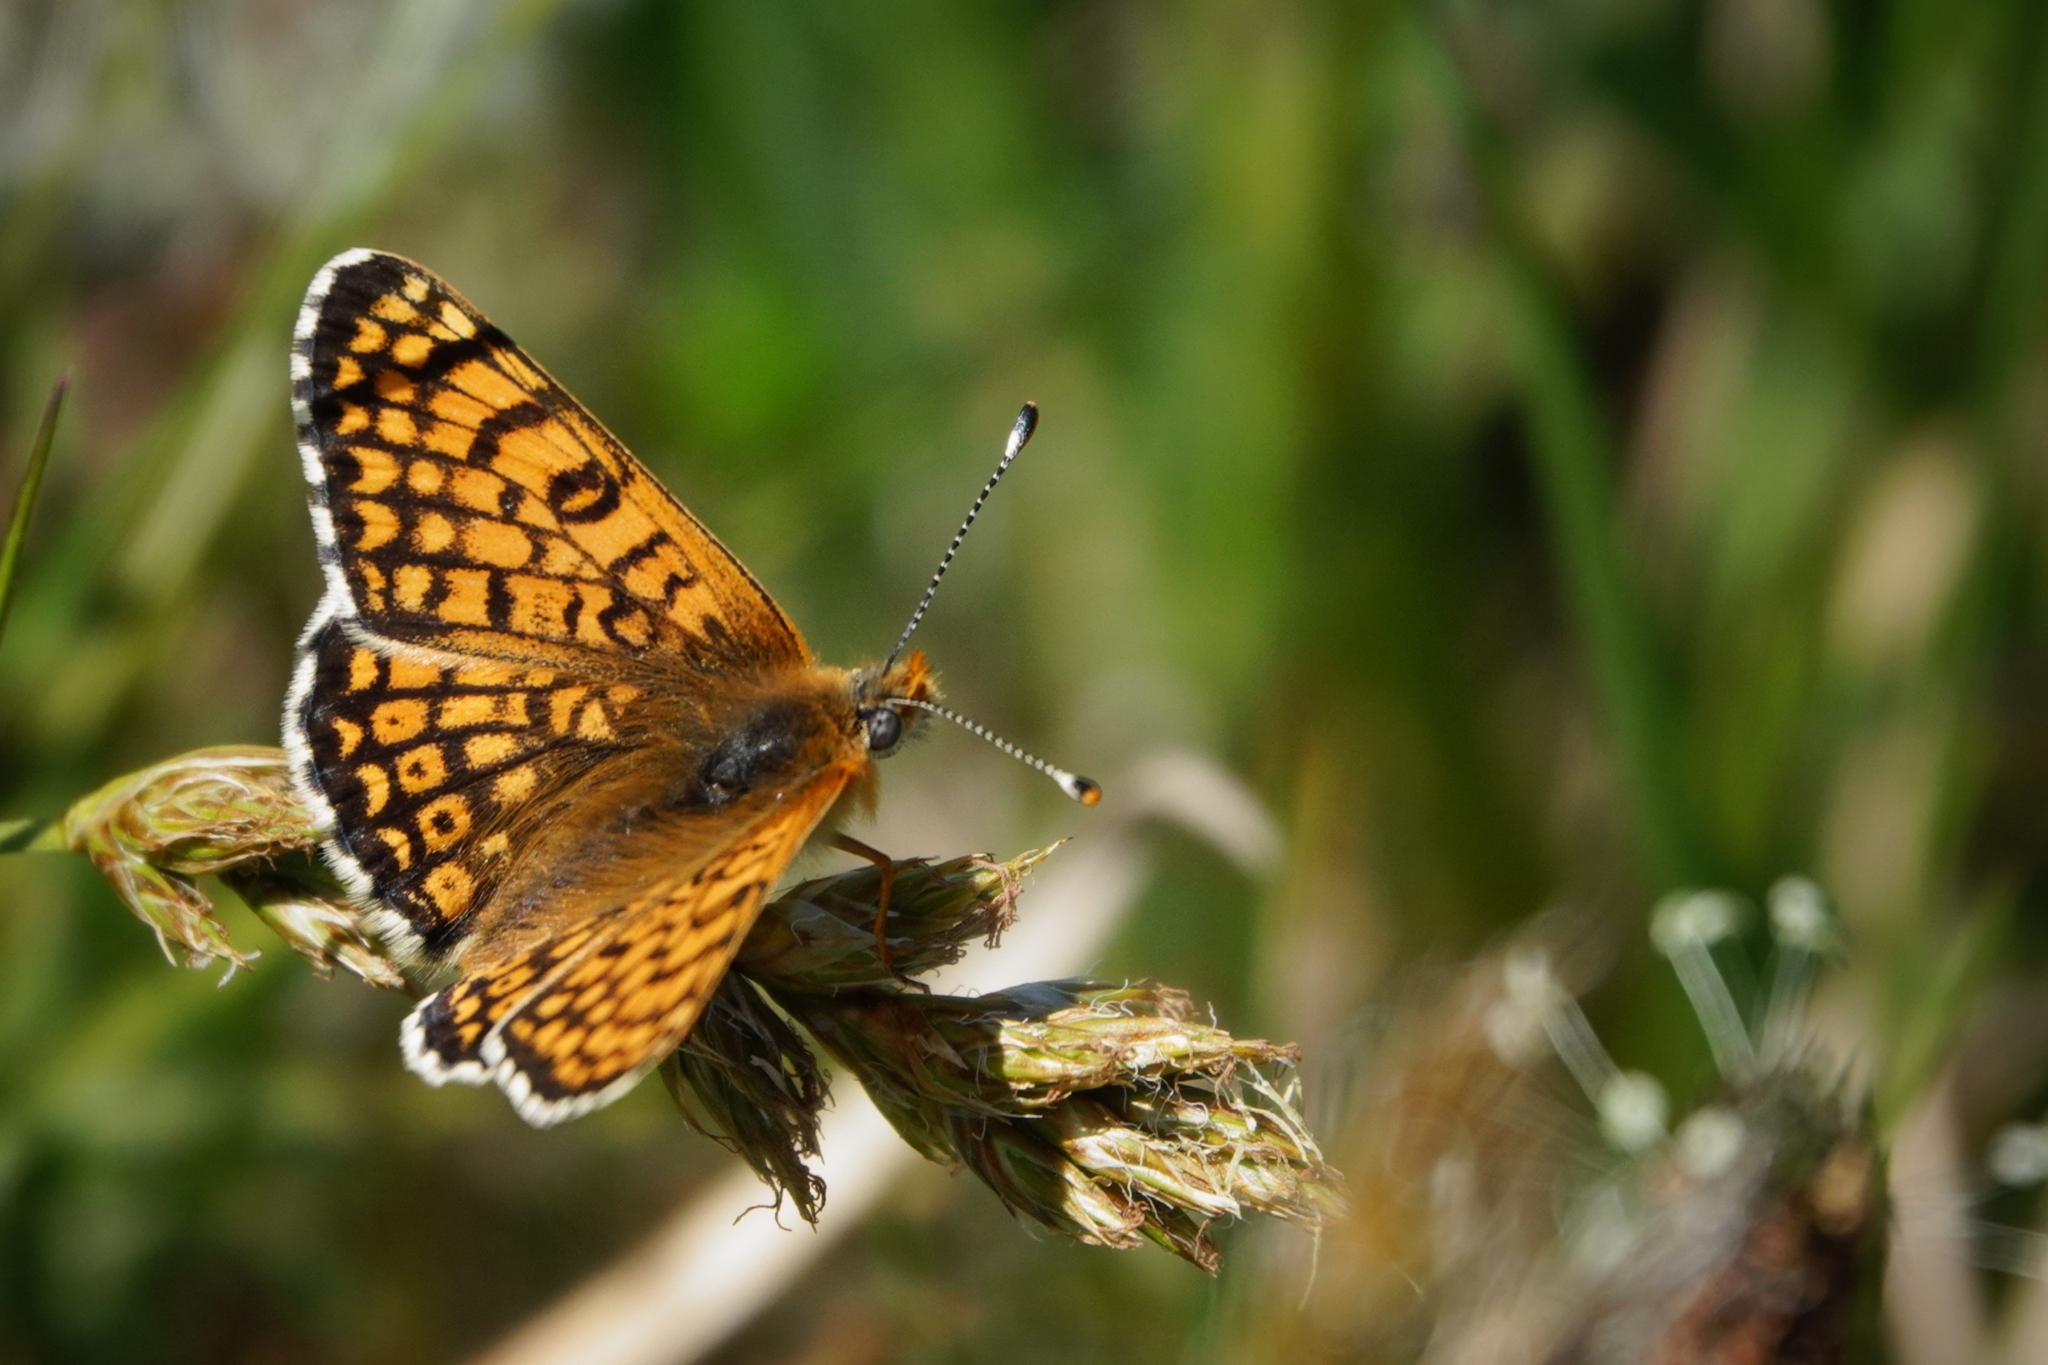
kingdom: Animalia
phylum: Arthropoda
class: Insecta
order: Lepidoptera
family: Nymphalidae
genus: Melitaea
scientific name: Melitaea cinxia
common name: Glanville fritillary
